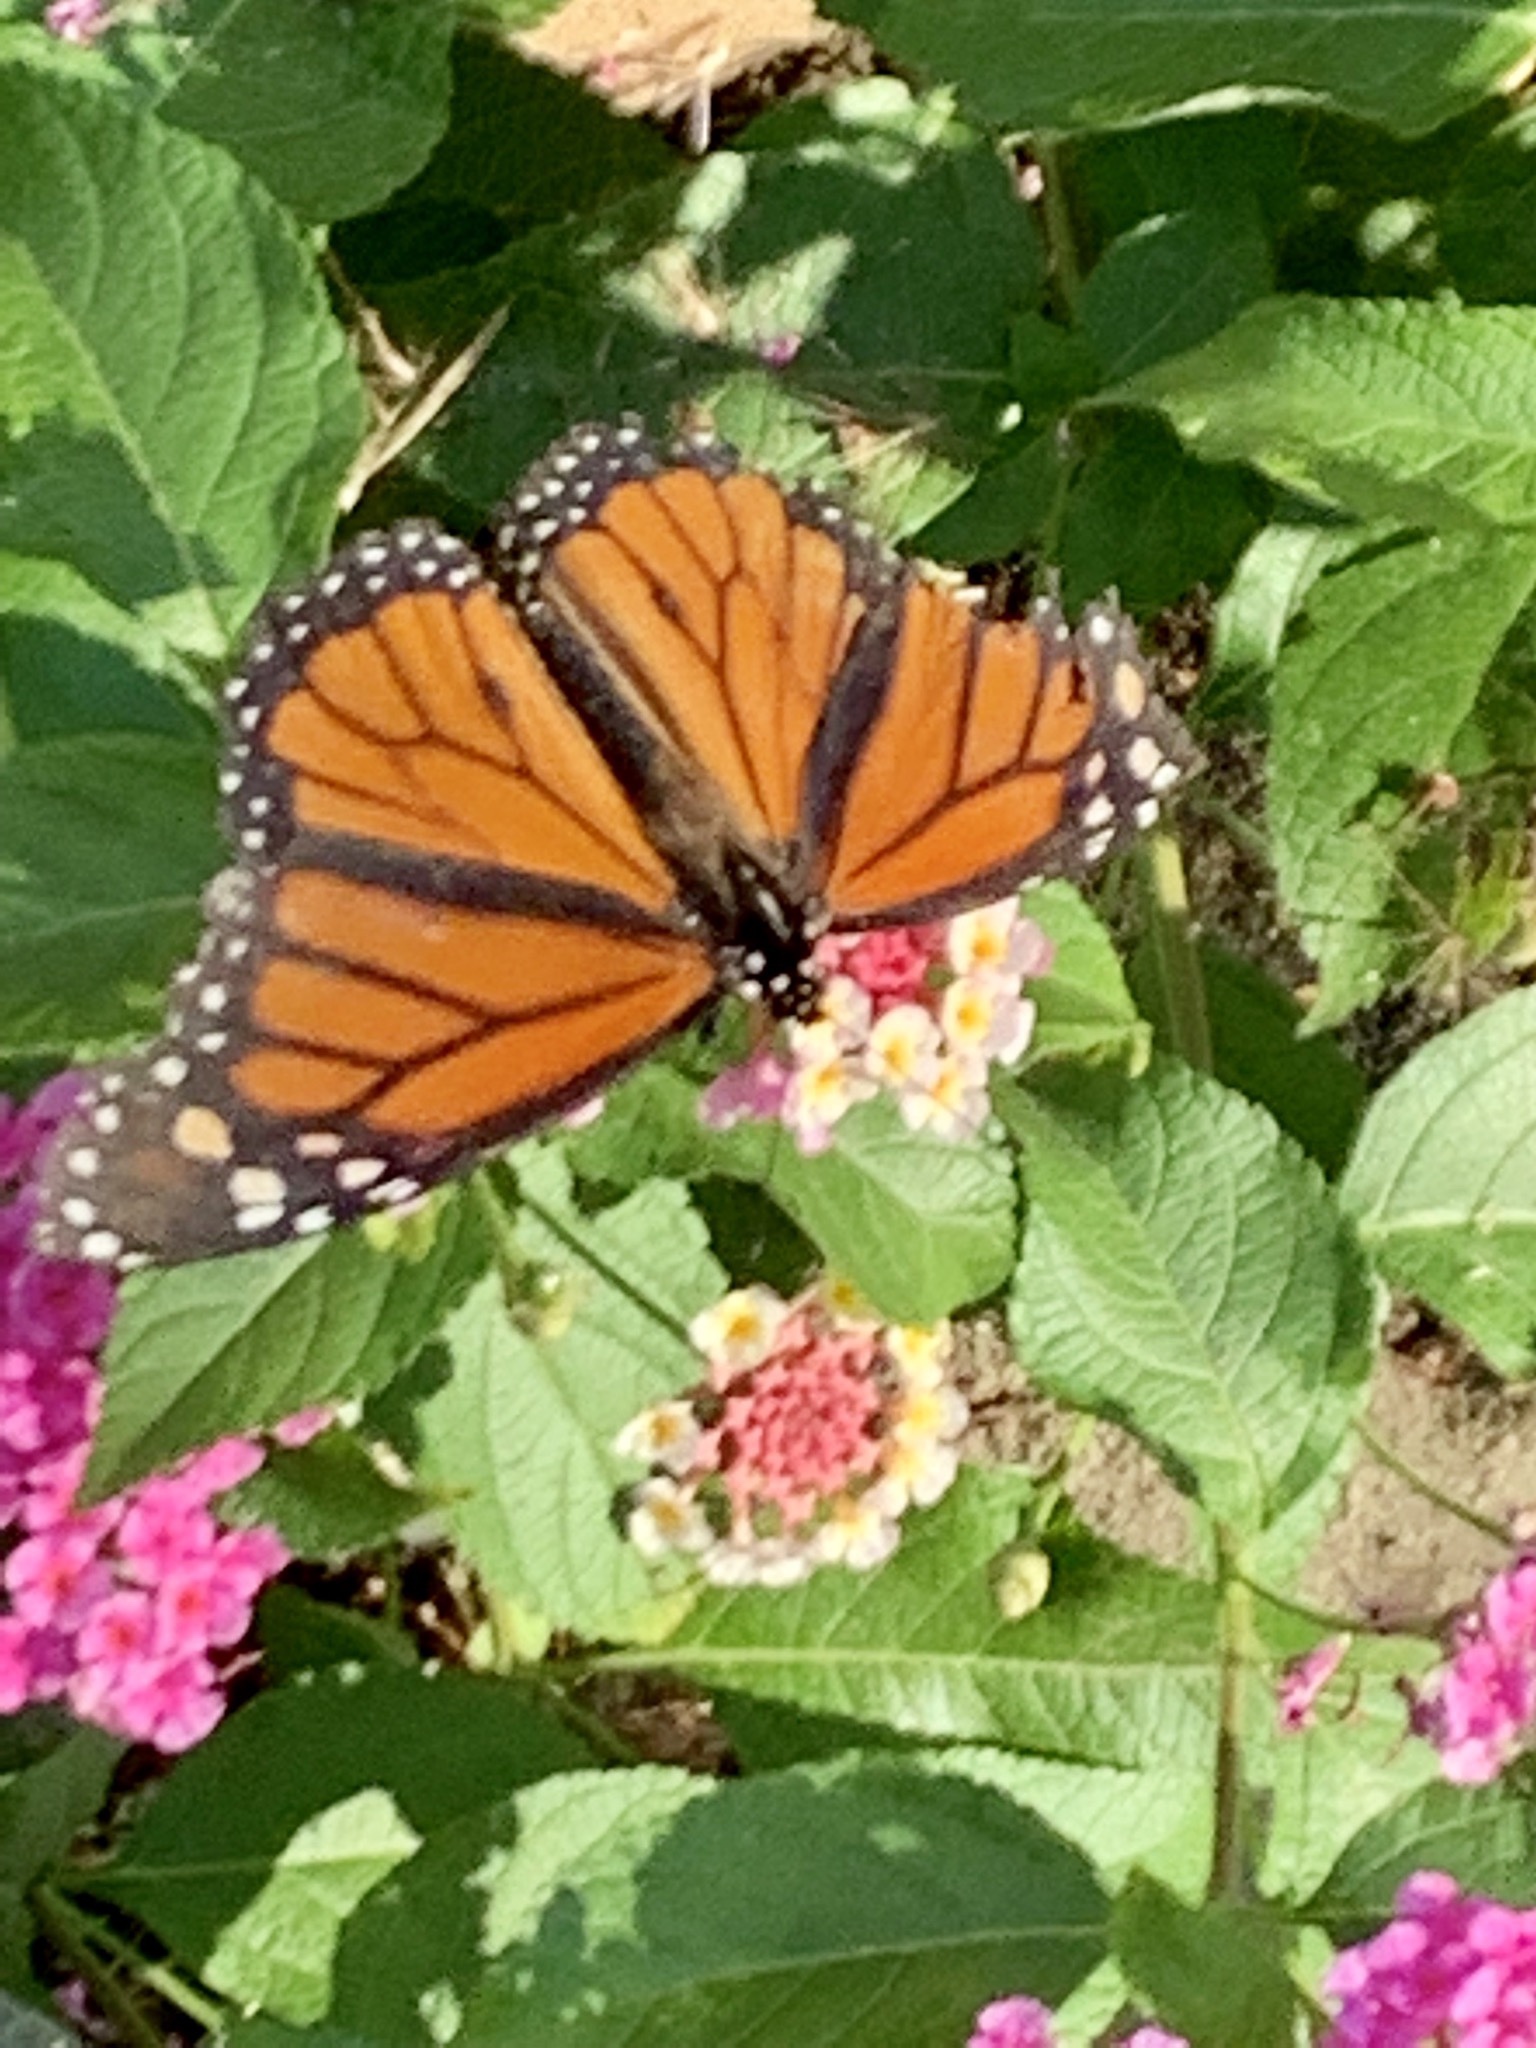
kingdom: Animalia
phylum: Arthropoda
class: Insecta
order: Lepidoptera
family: Nymphalidae
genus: Danaus
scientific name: Danaus plexippus
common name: Monarch
